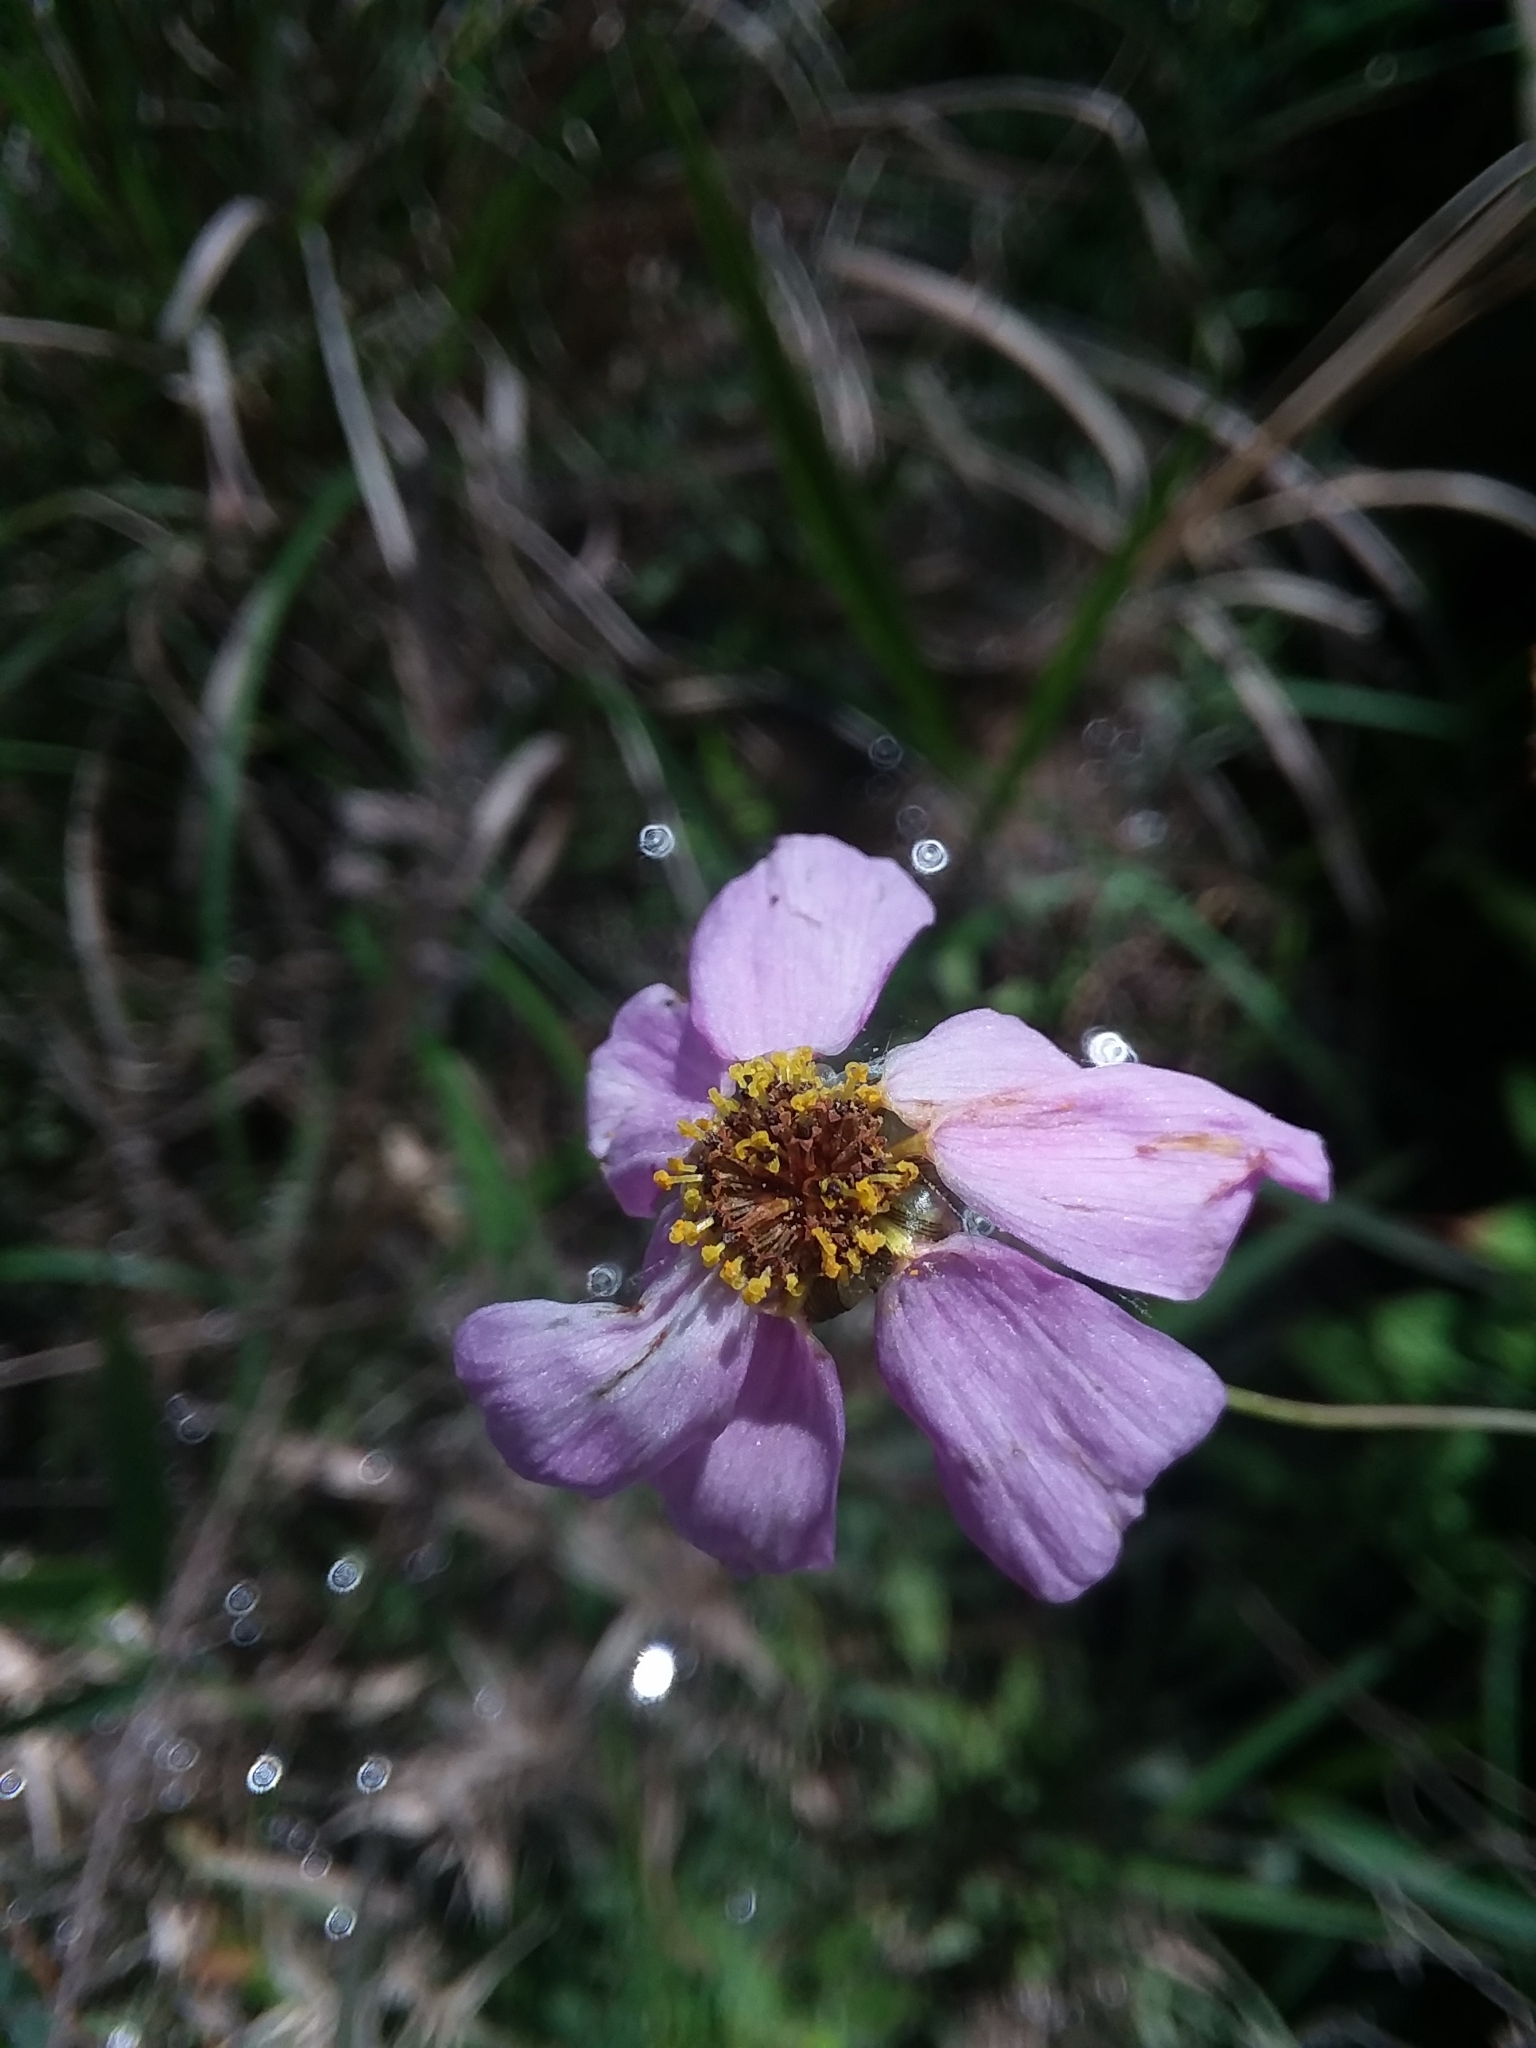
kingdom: Plantae
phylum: Tracheophyta
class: Magnoliopsida
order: Asterales
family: Asteraceae
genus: Coreopsis
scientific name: Coreopsis nudata
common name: Purple tickseed
